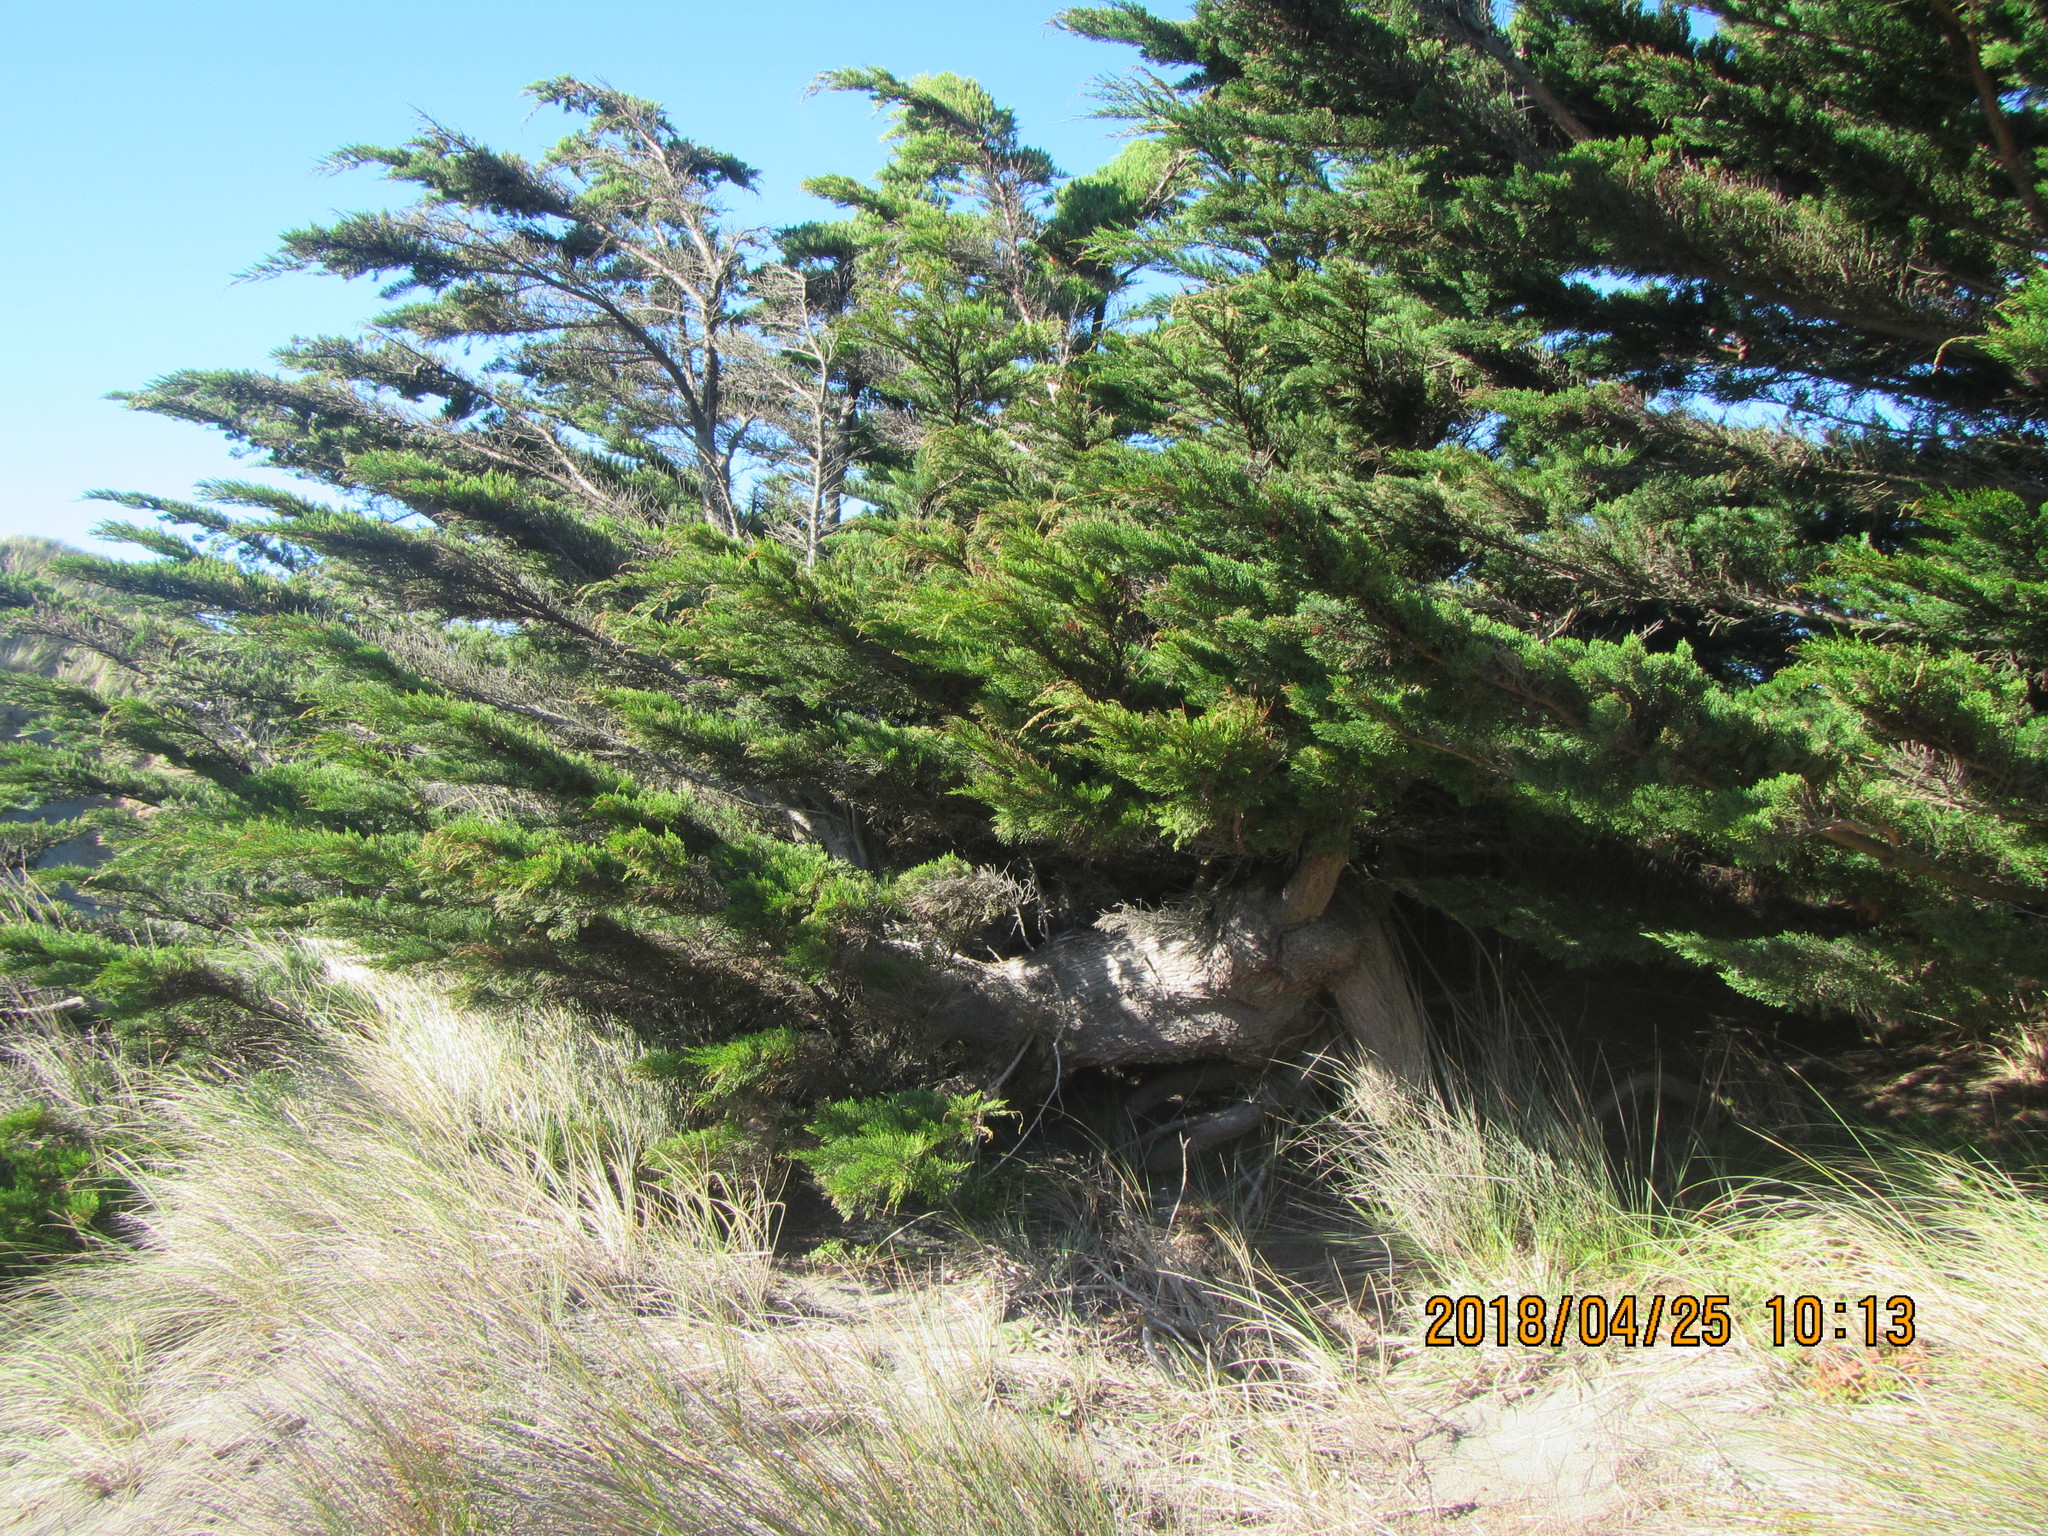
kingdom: Plantae
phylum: Tracheophyta
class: Pinopsida
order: Pinales
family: Cupressaceae
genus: Cupressus
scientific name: Cupressus macrocarpa
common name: Monterey cypress
